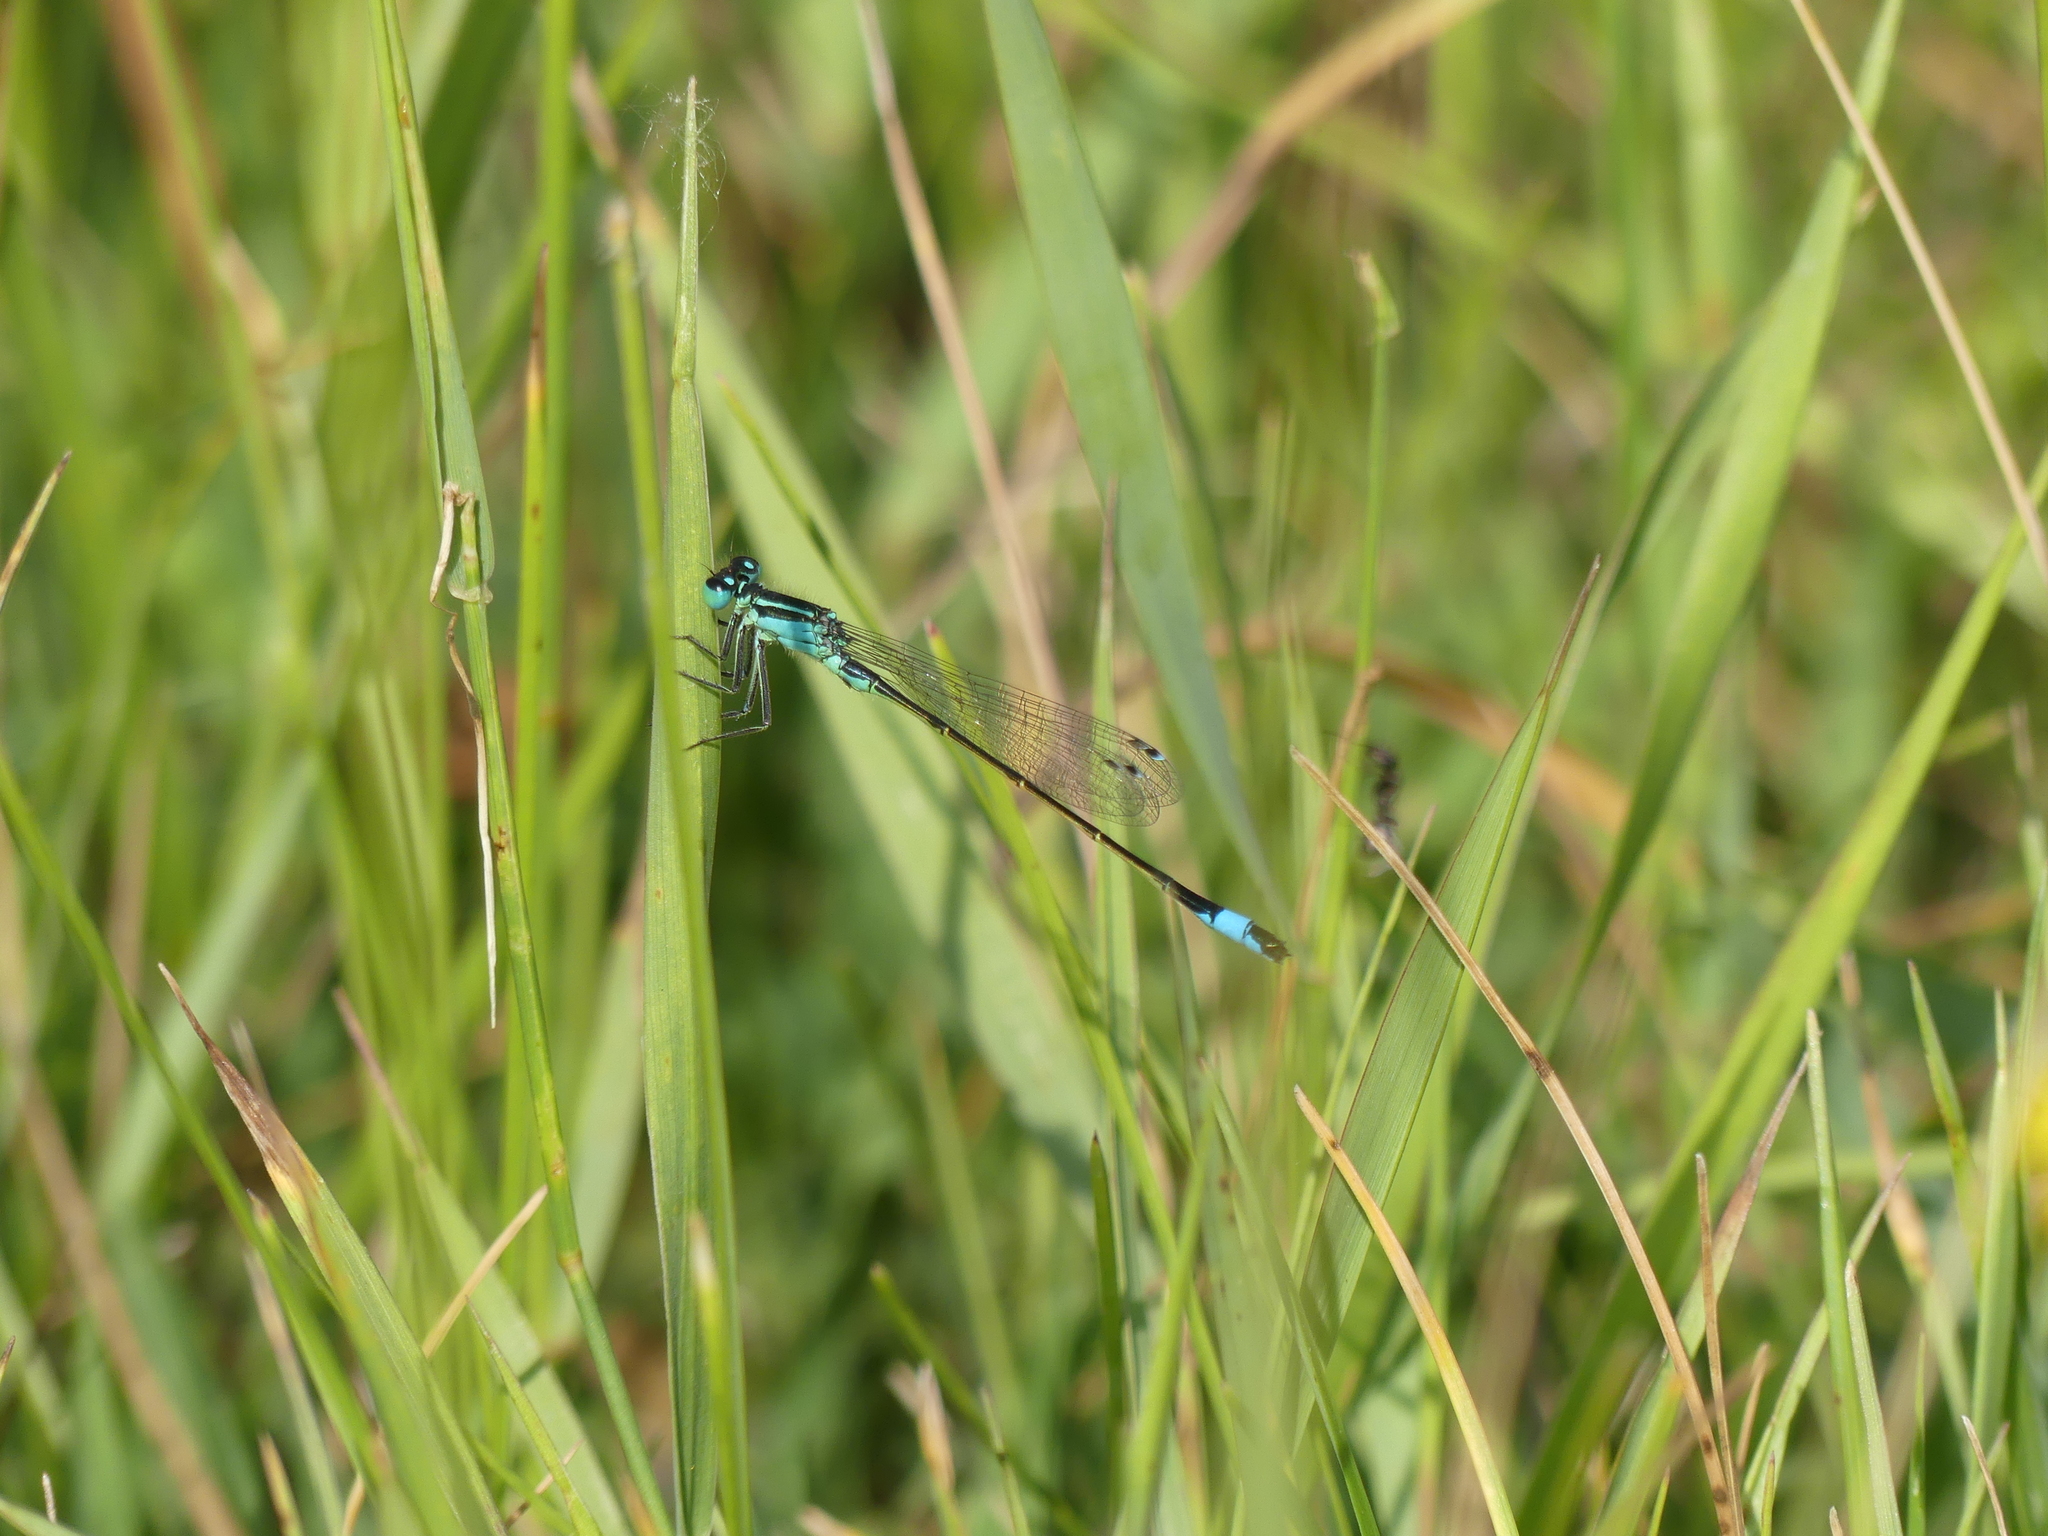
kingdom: Animalia
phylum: Arthropoda
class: Insecta
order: Odonata
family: Coenagrionidae
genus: Ischnura
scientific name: Ischnura elegans
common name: Blue-tailed damselfly
